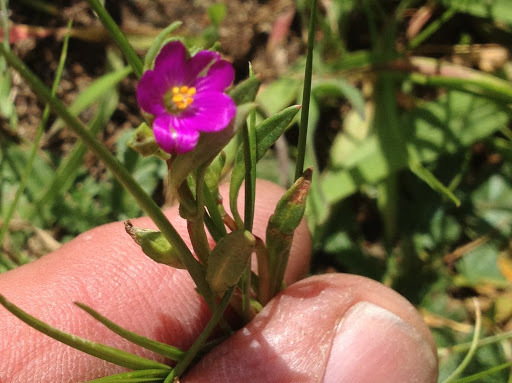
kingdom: Plantae
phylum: Tracheophyta
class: Magnoliopsida
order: Caryophyllales
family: Montiaceae
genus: Calandrinia
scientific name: Calandrinia menziesii
